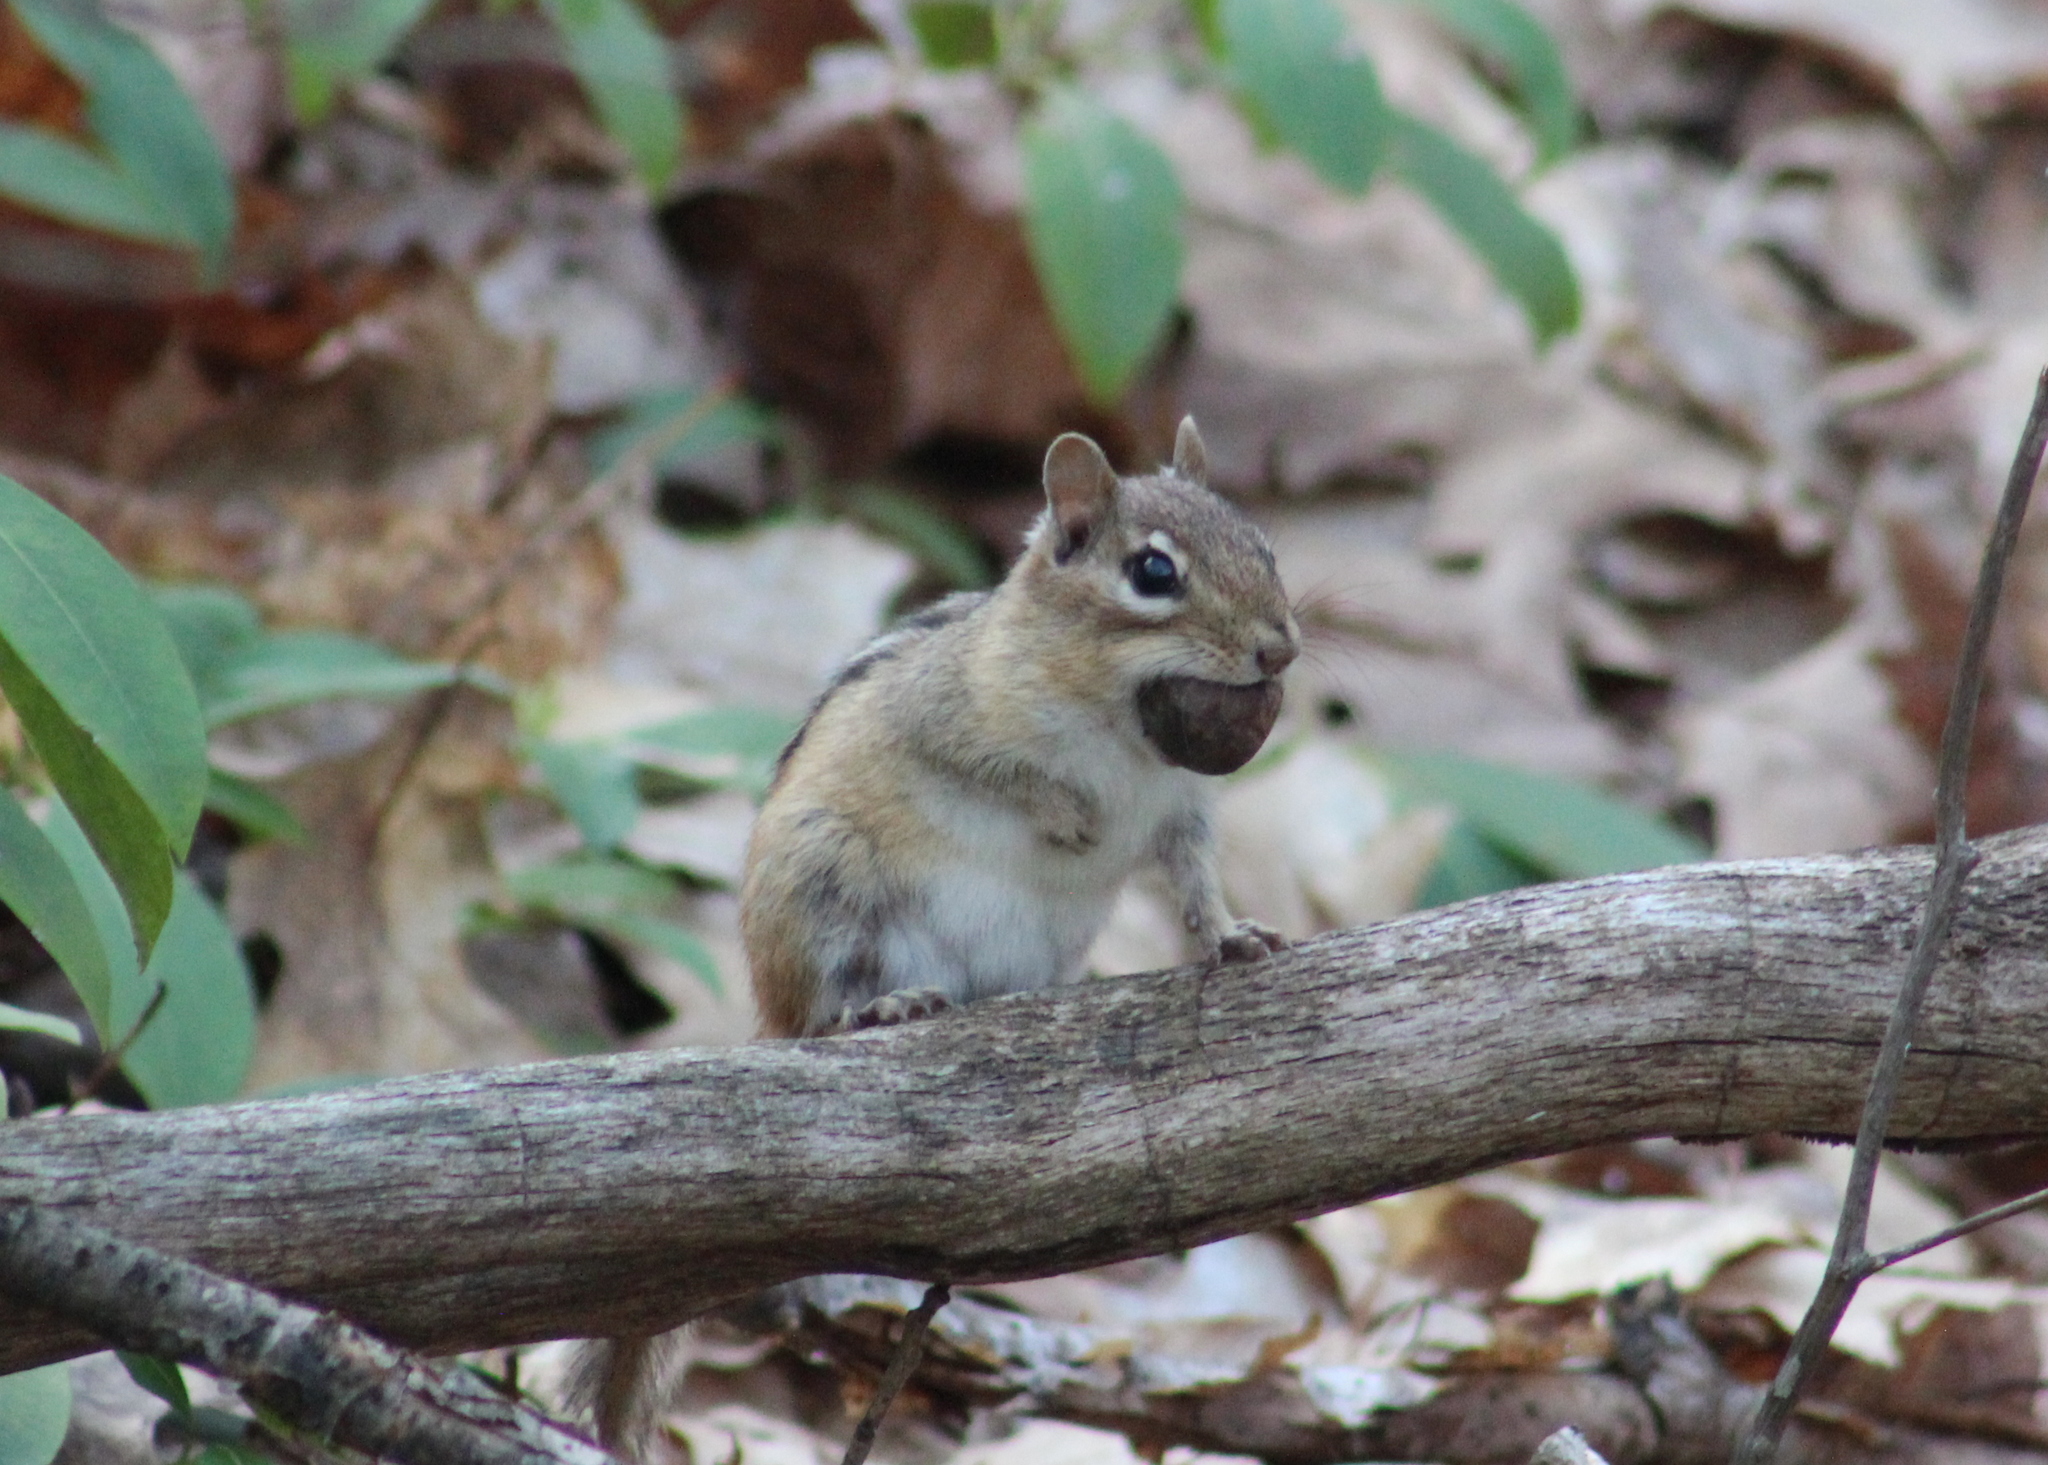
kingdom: Animalia
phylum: Chordata
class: Mammalia
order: Rodentia
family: Sciuridae
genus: Tamias
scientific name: Tamias striatus
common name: Eastern chipmunk
